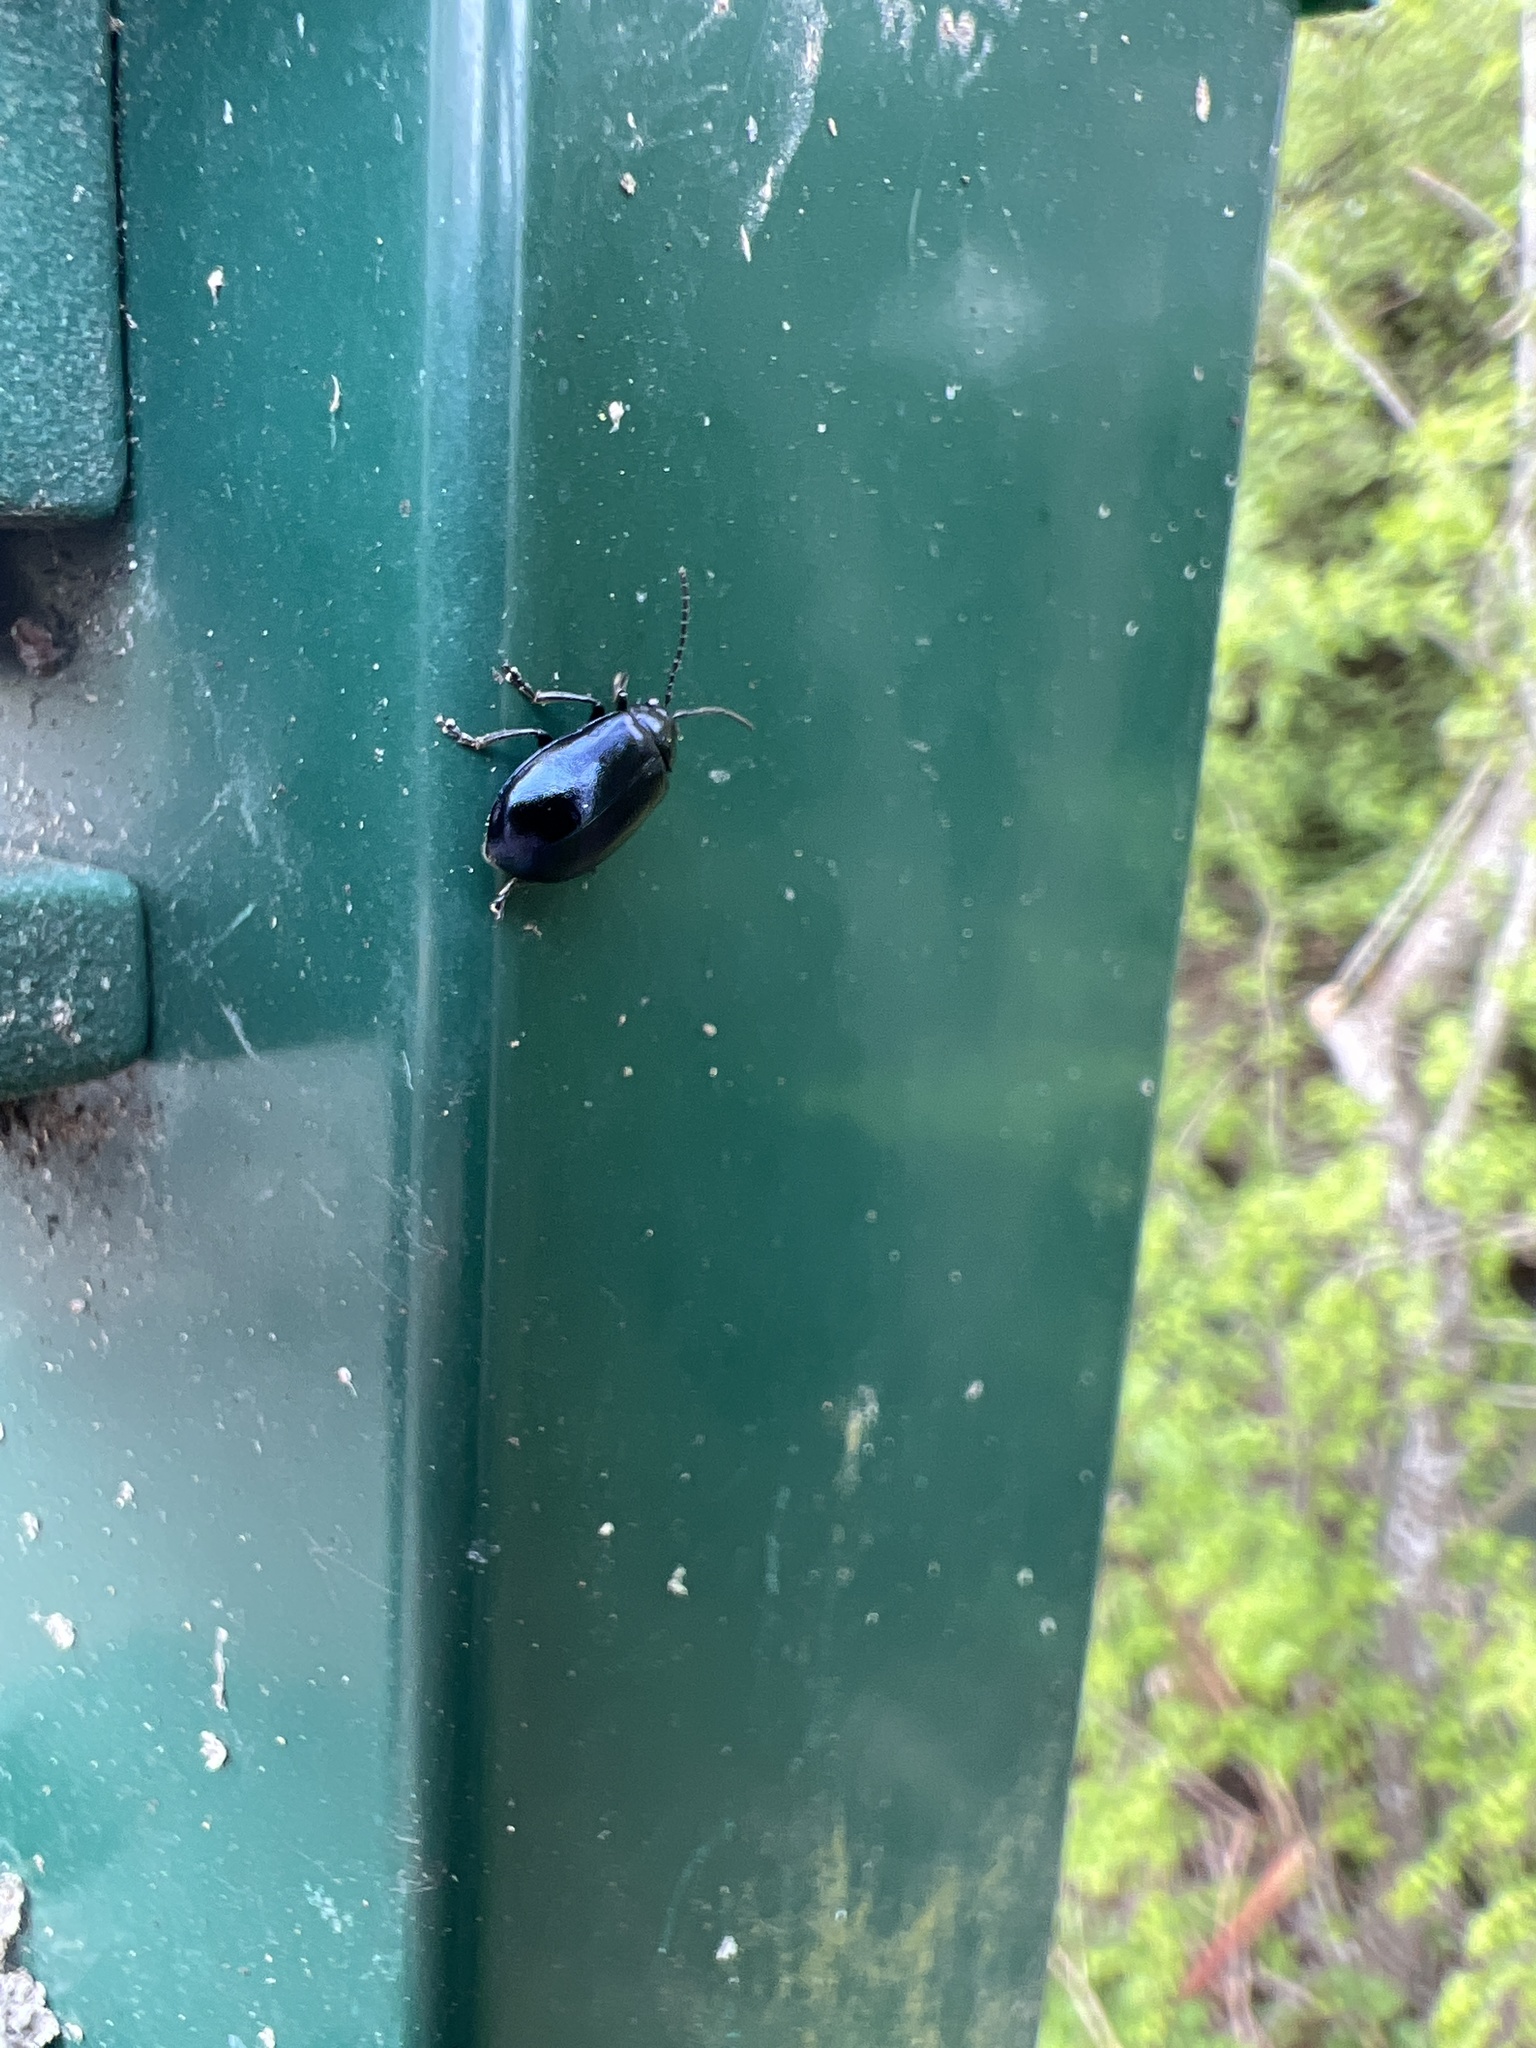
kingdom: Animalia
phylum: Arthropoda
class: Insecta
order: Coleoptera
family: Chrysomelidae
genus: Agelastica
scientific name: Agelastica alni
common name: Alder leaf beetle
